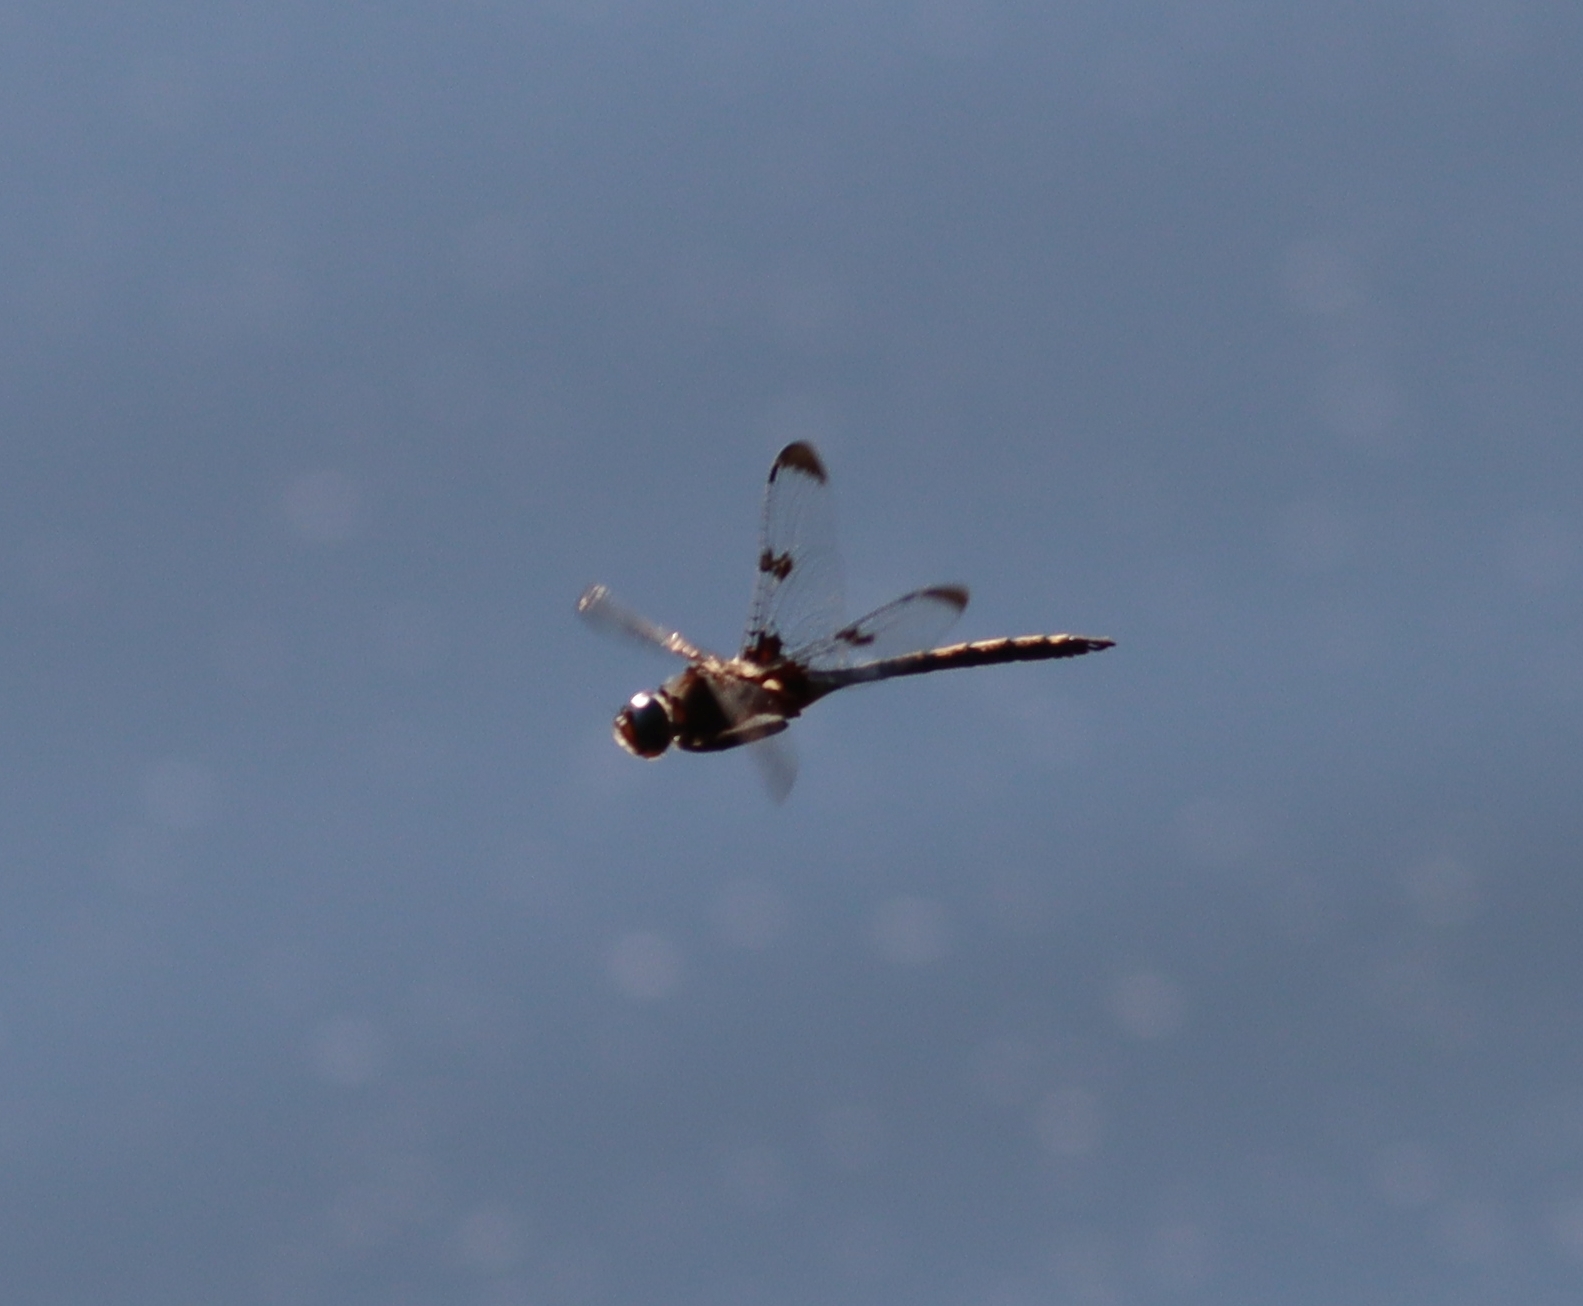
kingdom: Animalia
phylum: Arthropoda
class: Insecta
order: Odonata
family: Corduliidae
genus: Epitheca
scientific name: Epitheca princeps
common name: Prince baskettail
